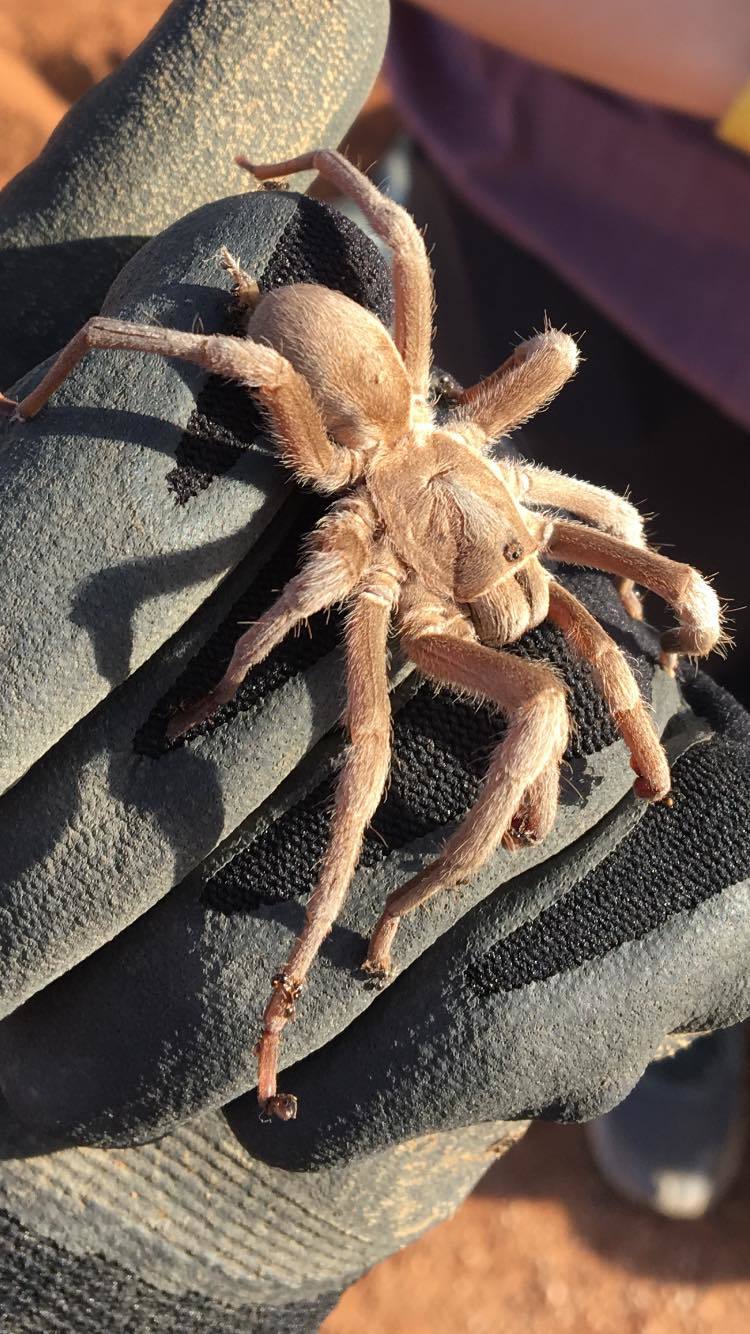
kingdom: Animalia
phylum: Arthropoda
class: Arachnida
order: Araneae
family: Theraphosidae
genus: Selenocosmia
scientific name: Selenocosmia stirlingi
